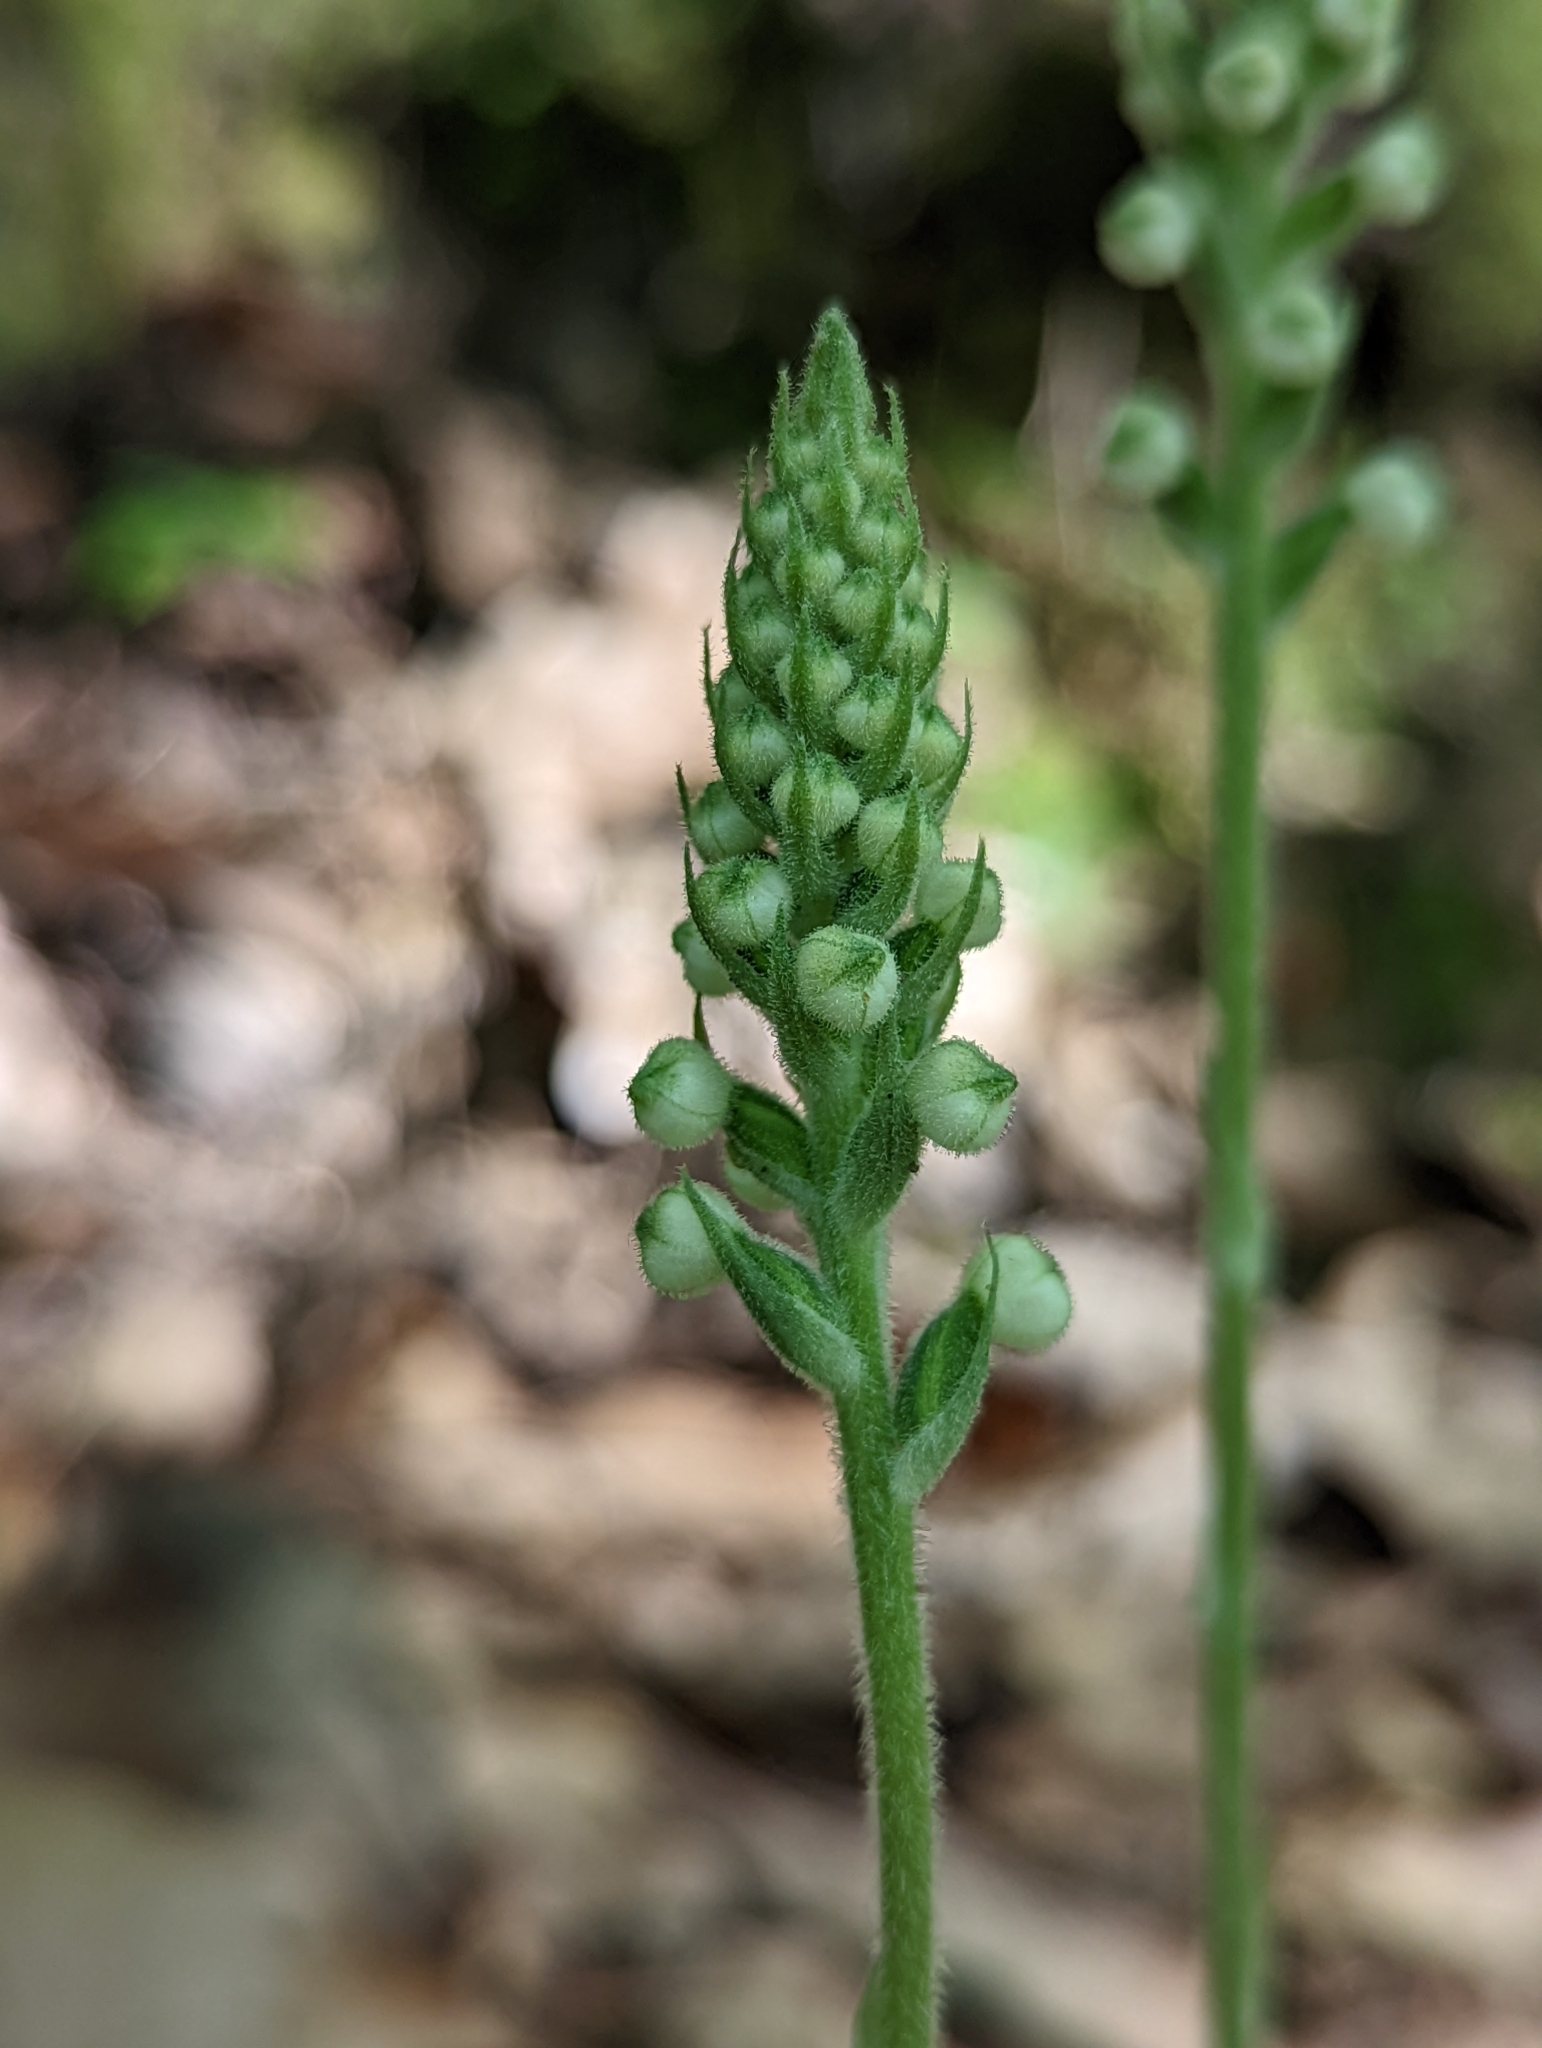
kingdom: Plantae
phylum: Tracheophyta
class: Liliopsida
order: Asparagales
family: Orchidaceae
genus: Goodyera
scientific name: Goodyera pubescens
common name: Downy rattlesnake-plantain
